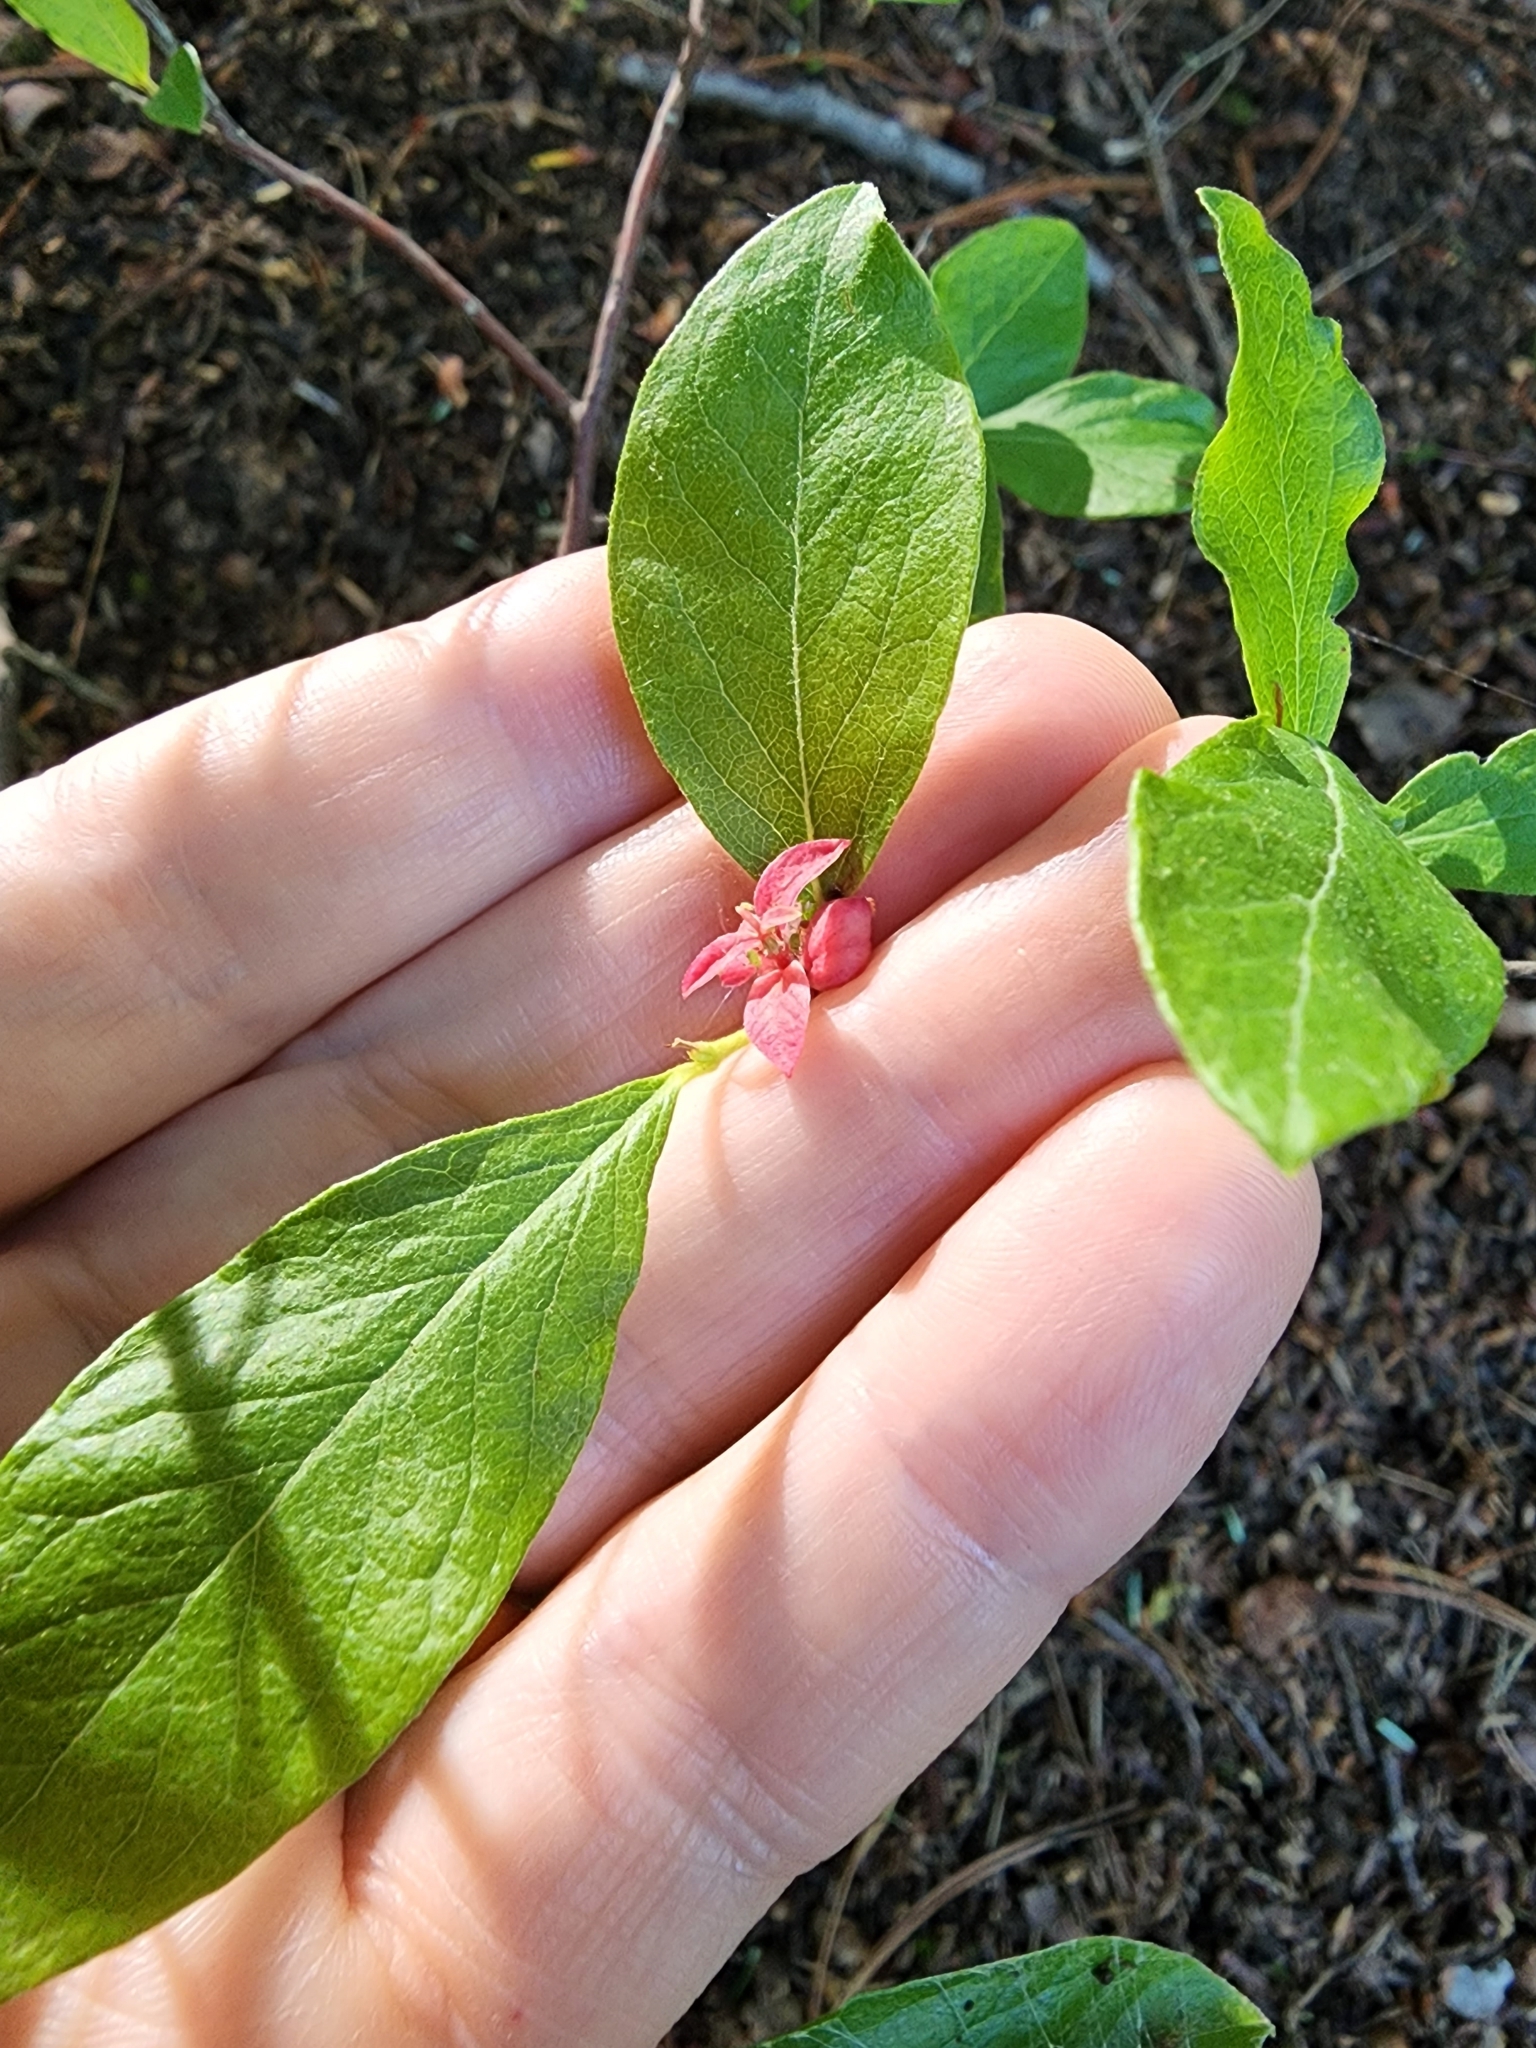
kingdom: Plantae
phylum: Tracheophyta
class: Magnoliopsida
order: Ericales
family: Ericaceae
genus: Vaccinium
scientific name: Vaccinium angustifolium
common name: Early lowbush blueberry
